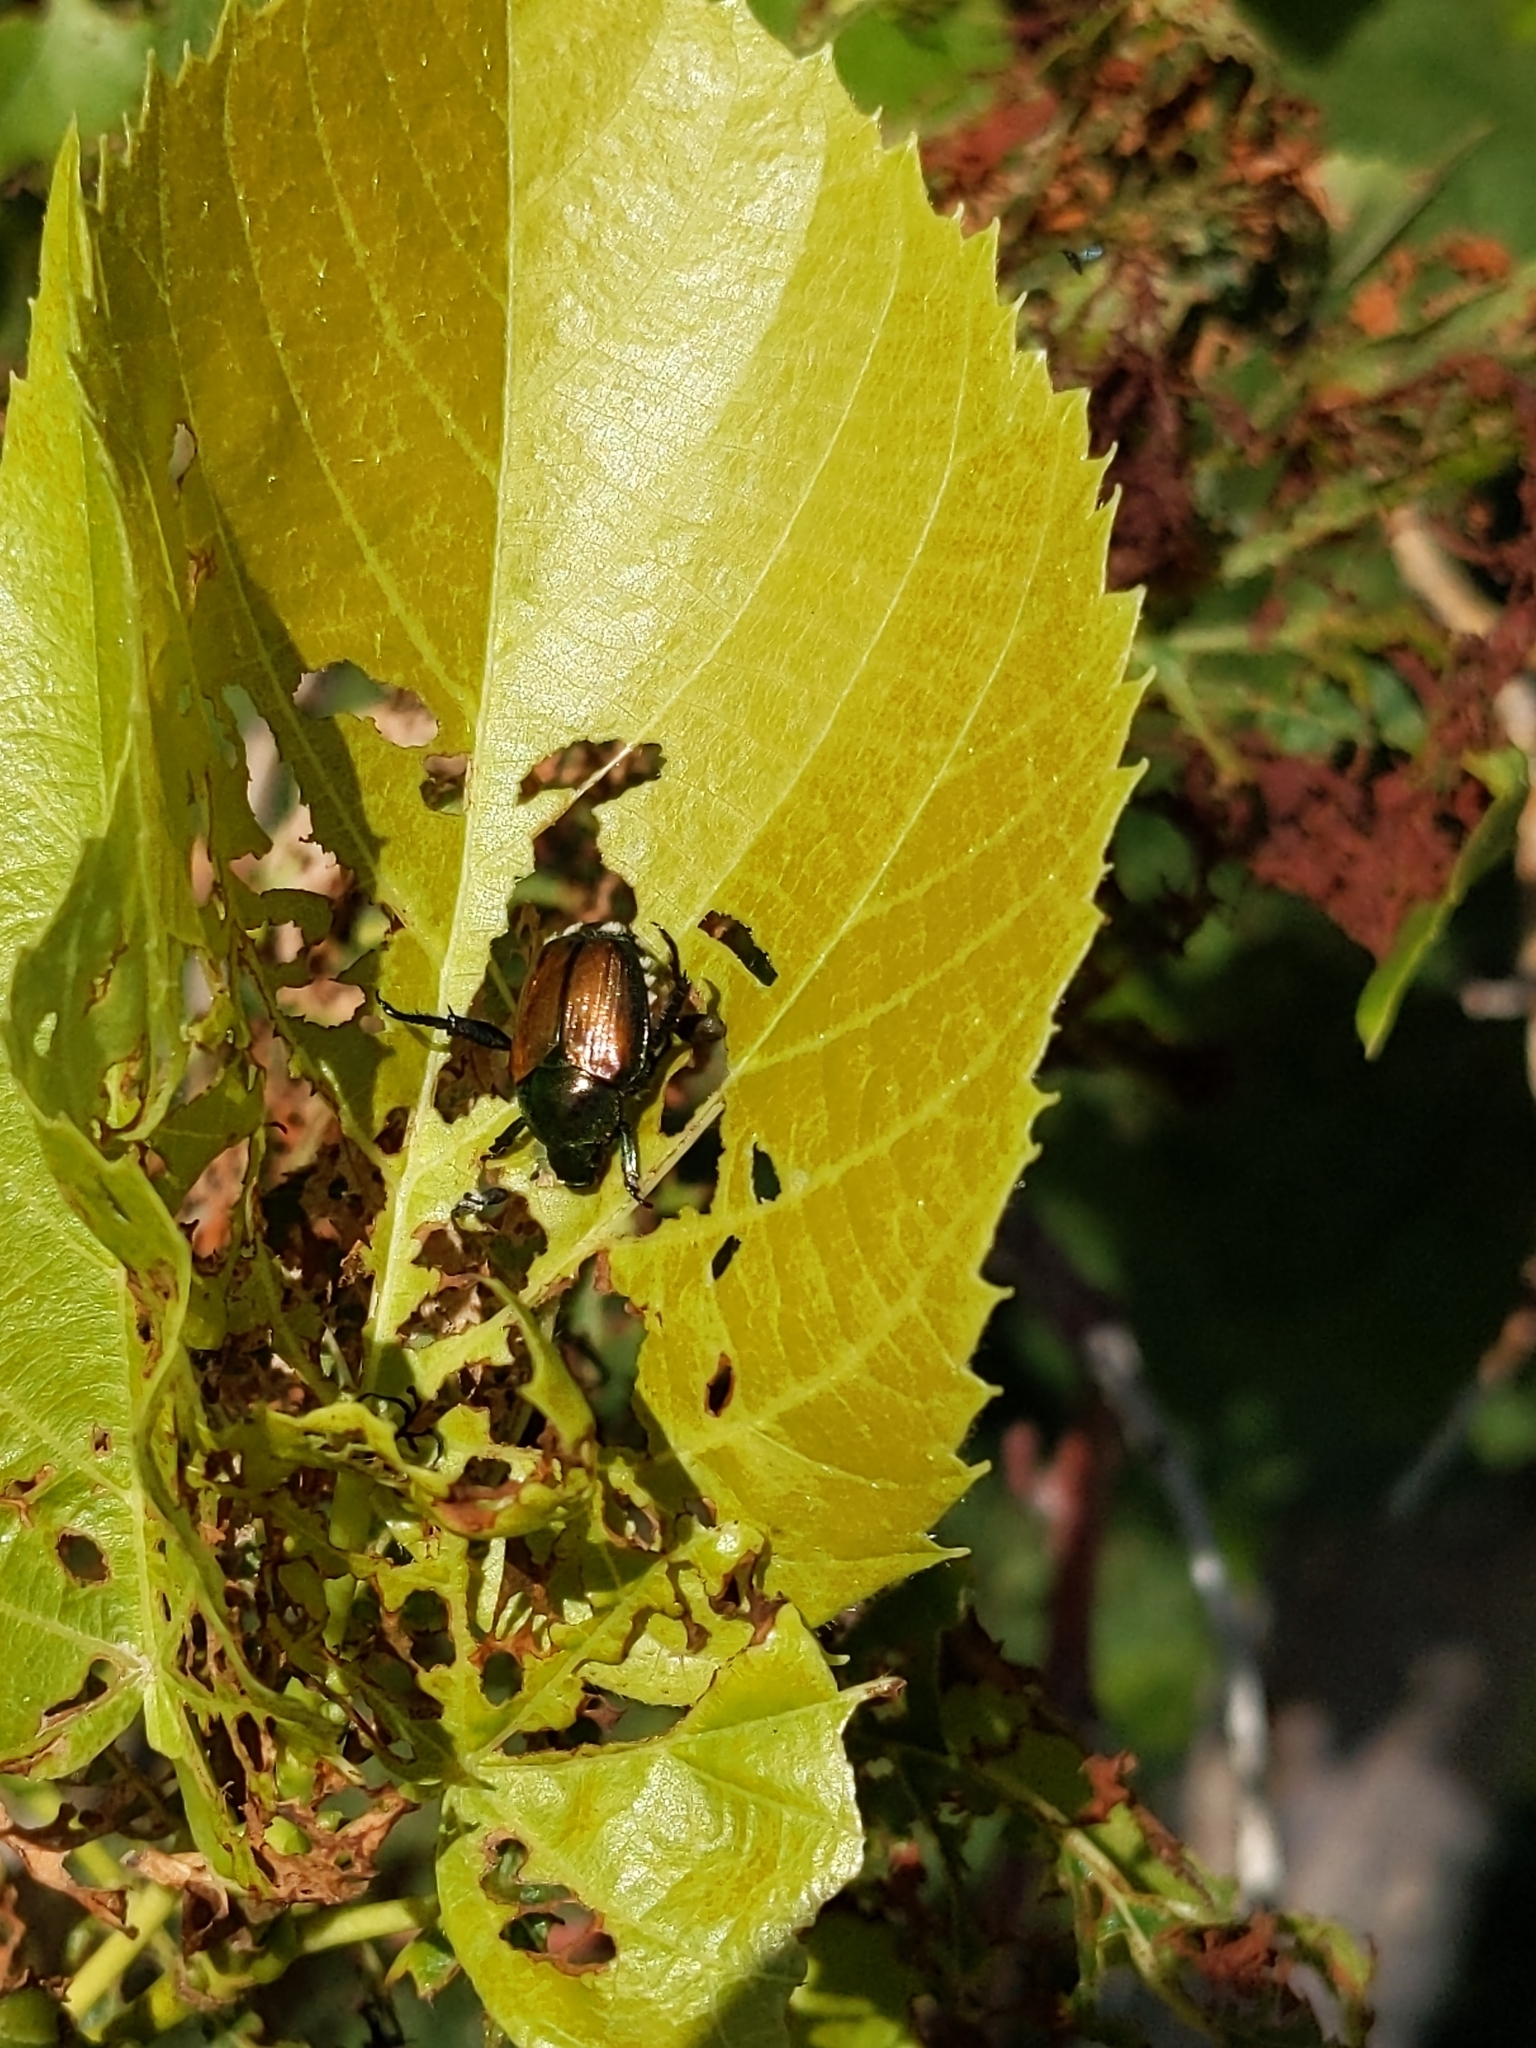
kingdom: Animalia
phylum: Arthropoda
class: Insecta
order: Coleoptera
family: Scarabaeidae
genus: Popillia
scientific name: Popillia japonica
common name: Japanese beetle
